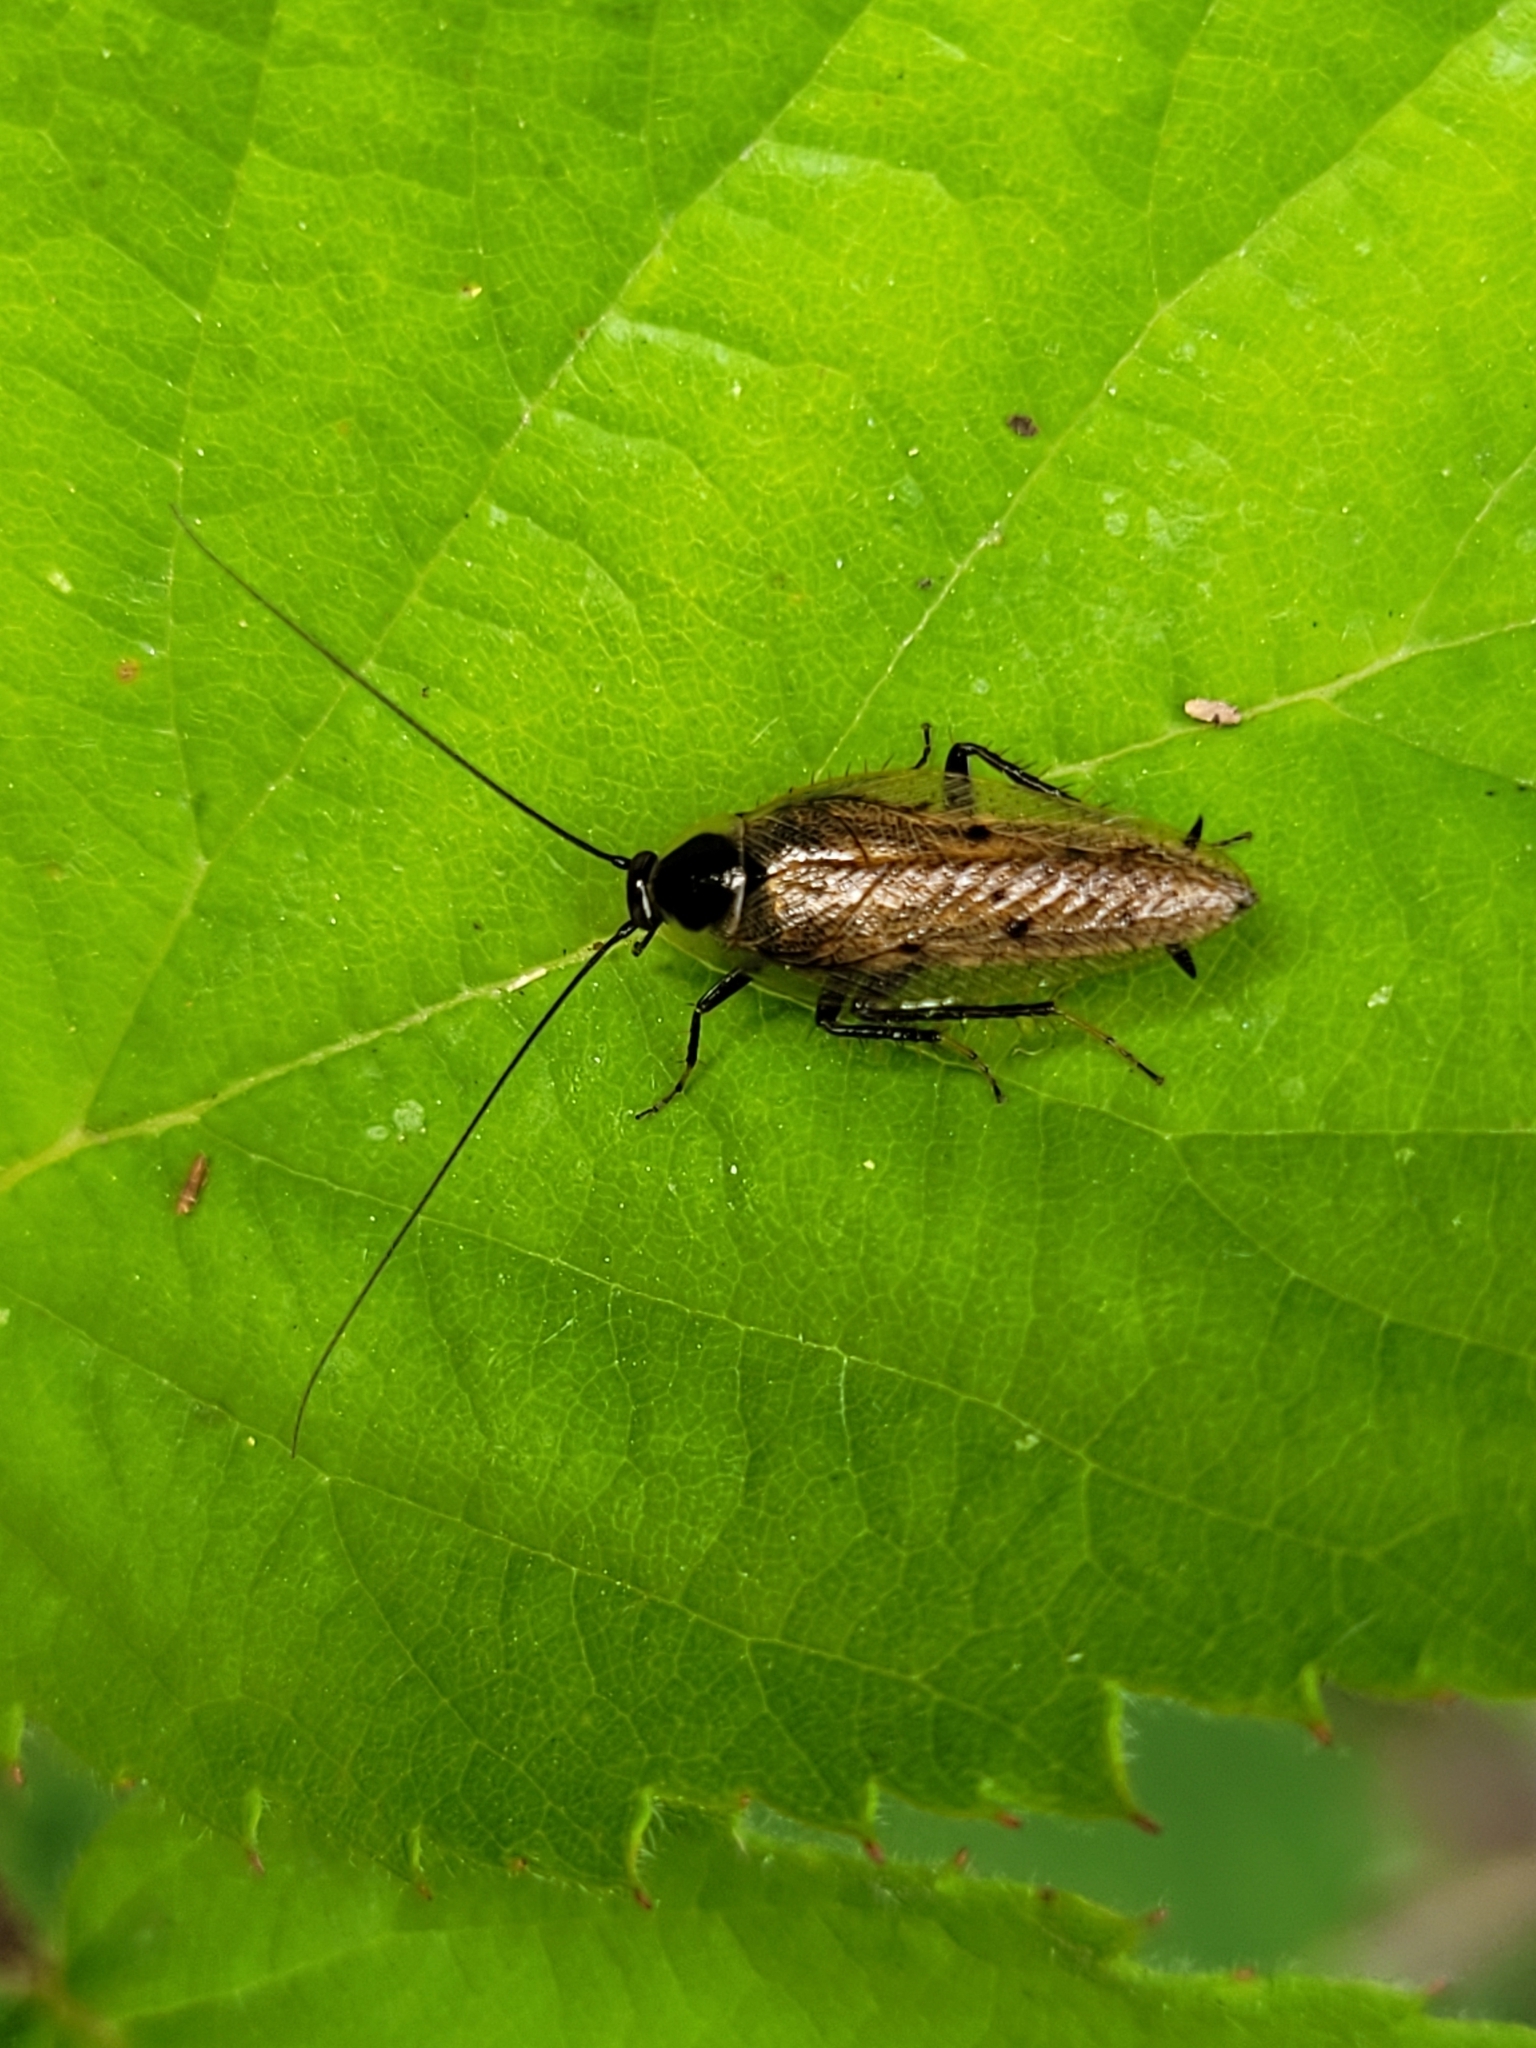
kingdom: Animalia
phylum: Arthropoda
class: Insecta
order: Blattodea
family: Ectobiidae
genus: Ectobius
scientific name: Ectobius lapponicus
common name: Dusky cockroach
